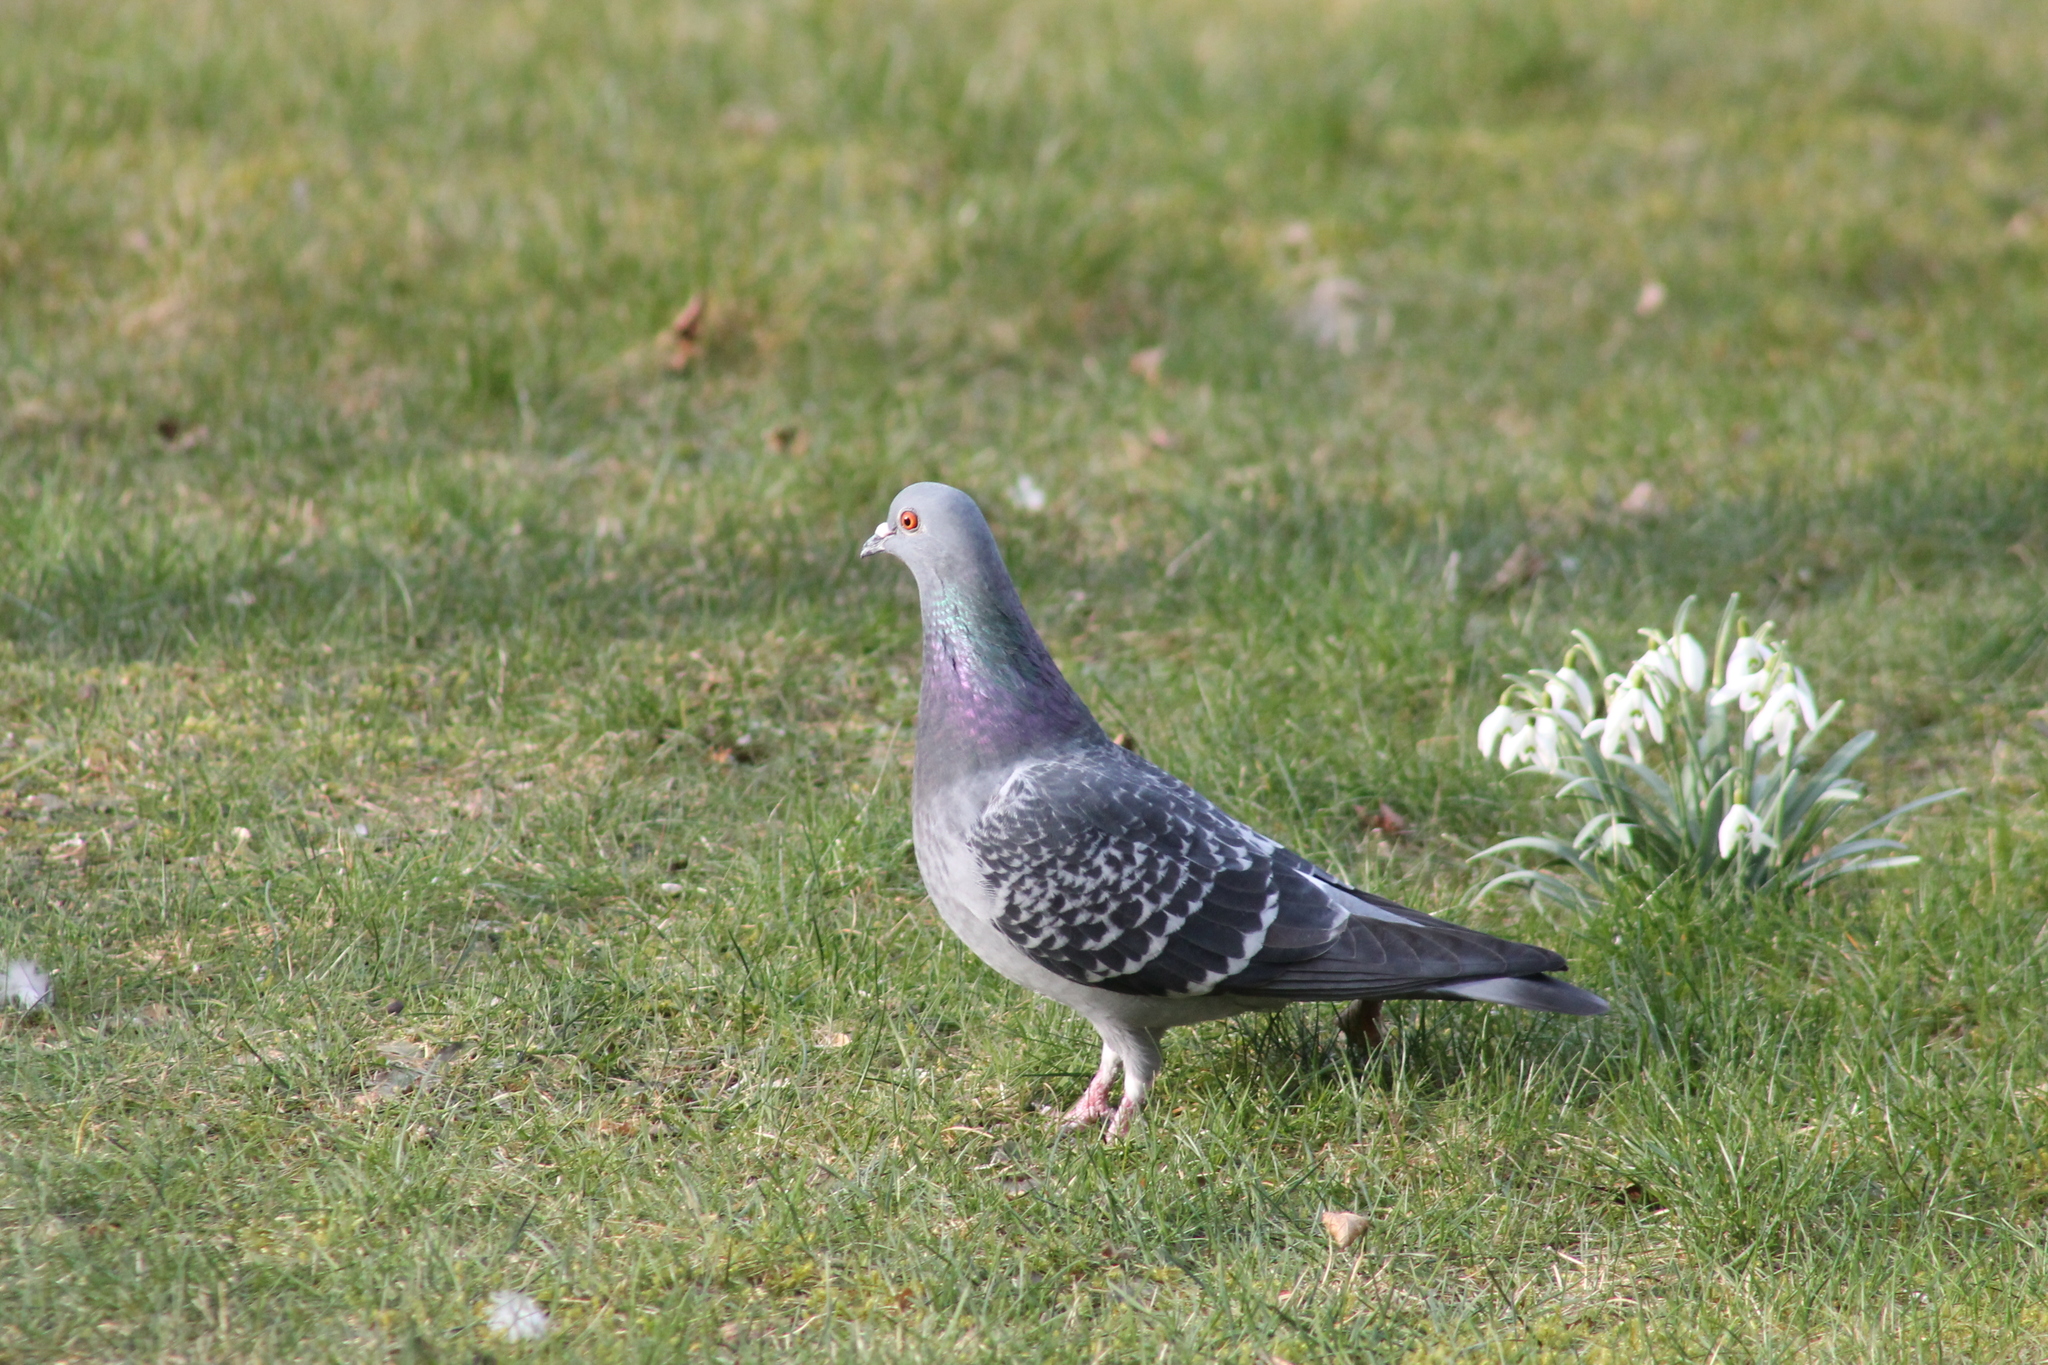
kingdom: Animalia
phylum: Chordata
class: Aves
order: Columbiformes
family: Columbidae
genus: Columba
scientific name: Columba livia
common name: Rock pigeon
